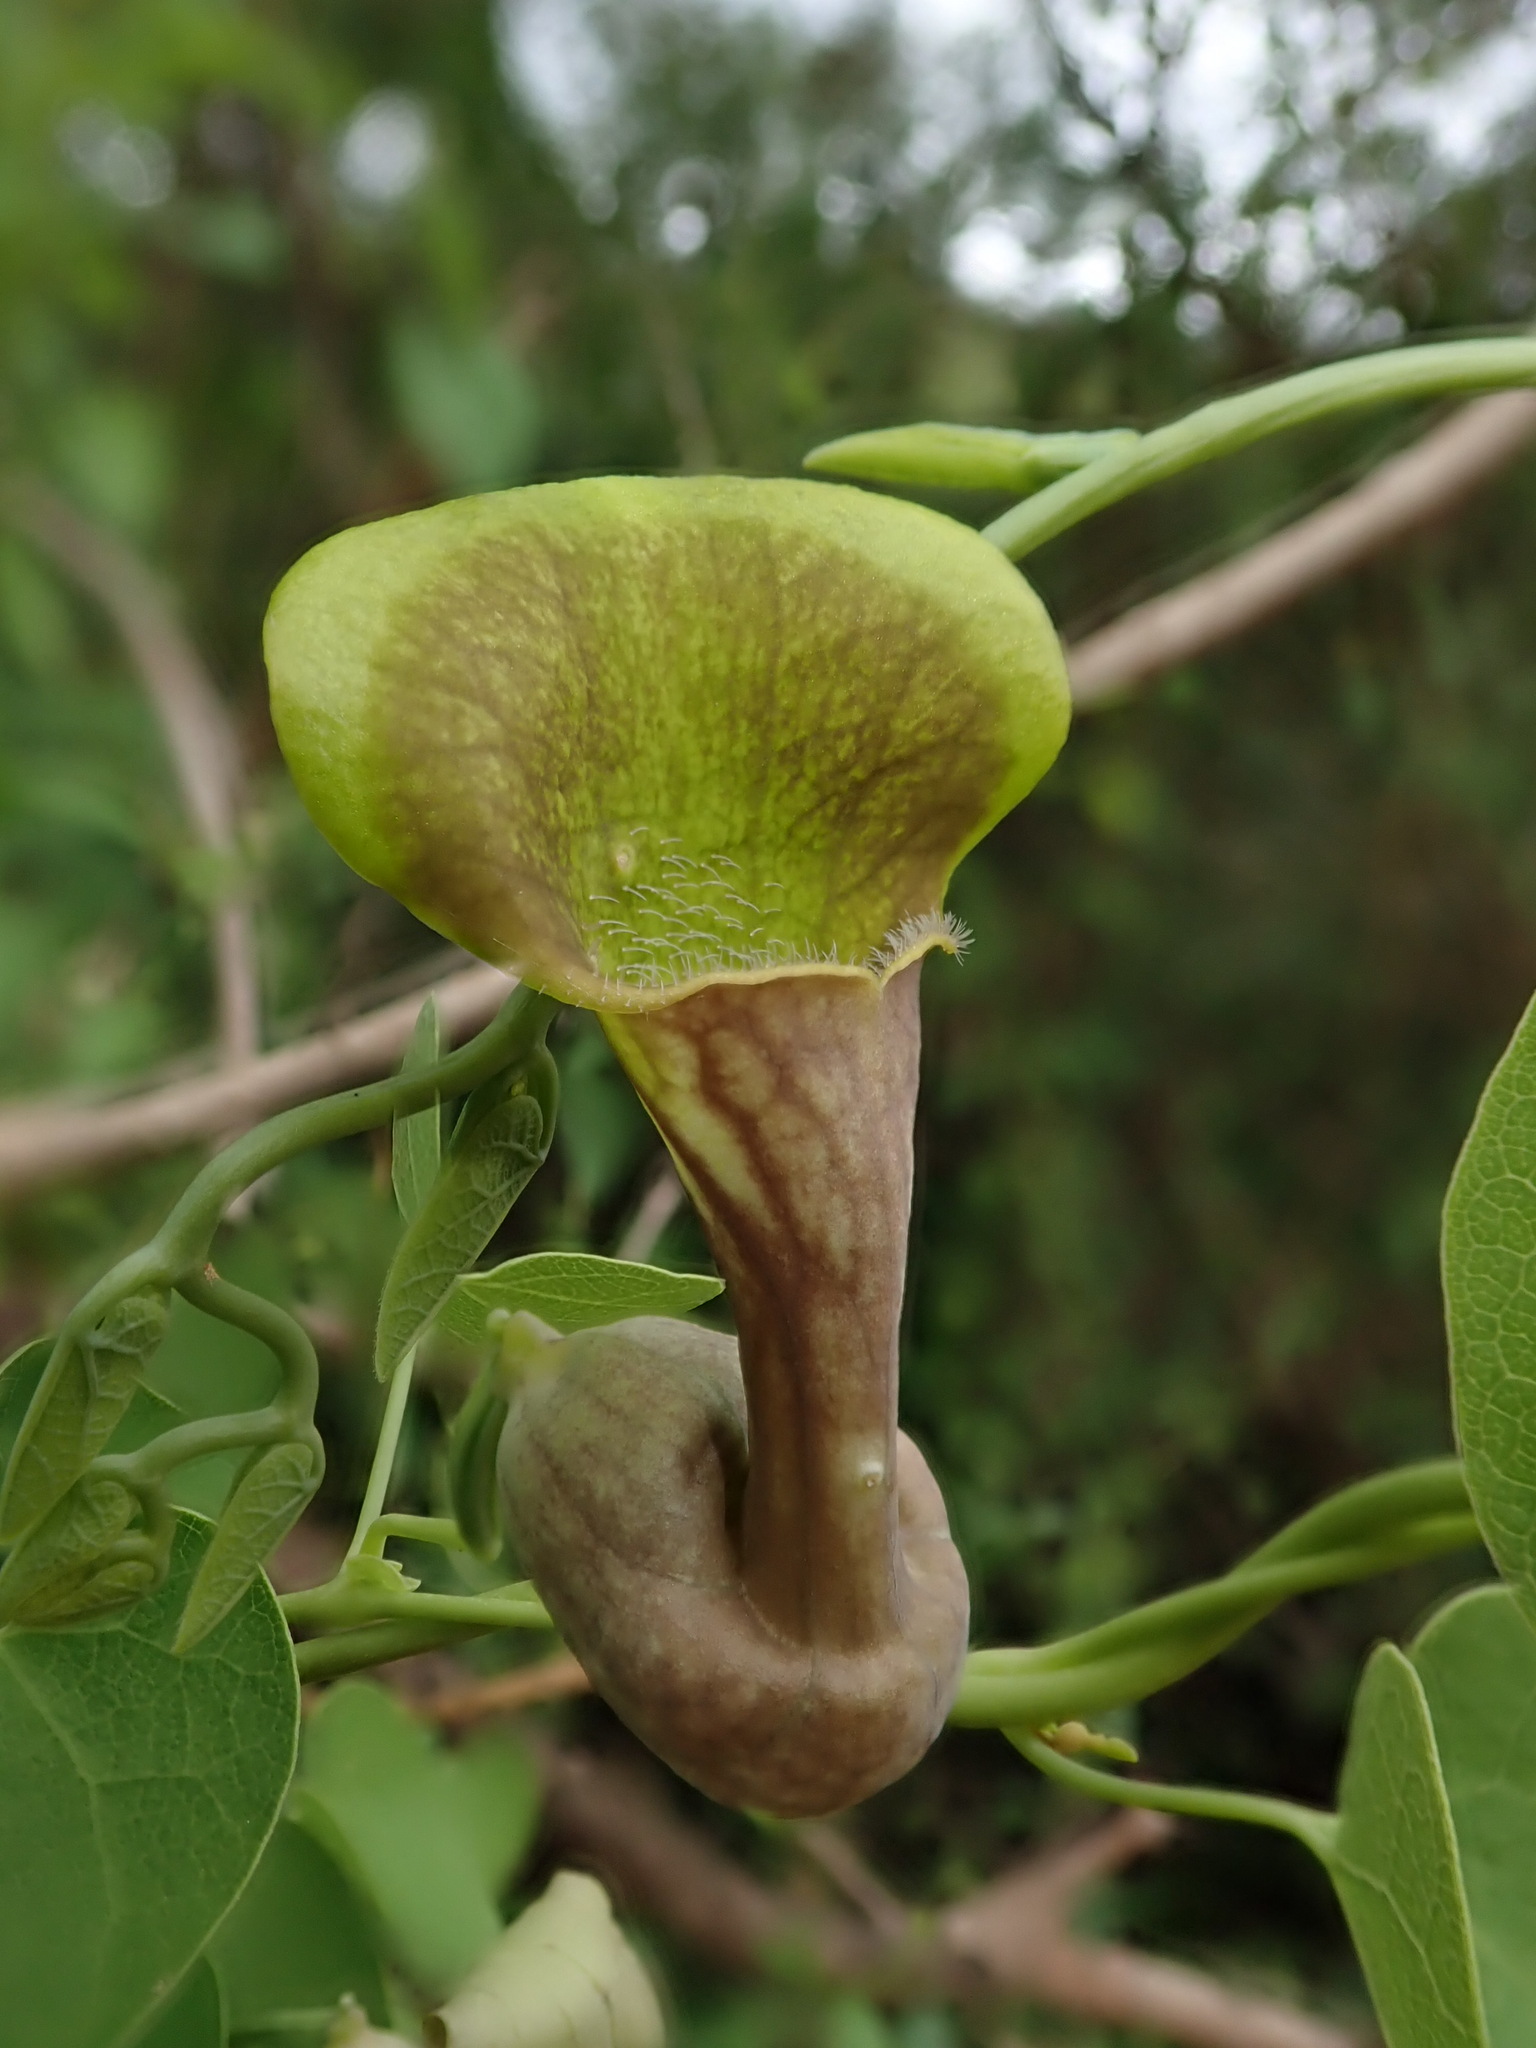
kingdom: Plantae
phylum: Tracheophyta
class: Magnoliopsida
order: Piperales
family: Aristolochiaceae
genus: Aristolochia
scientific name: Aristolochia argentina
